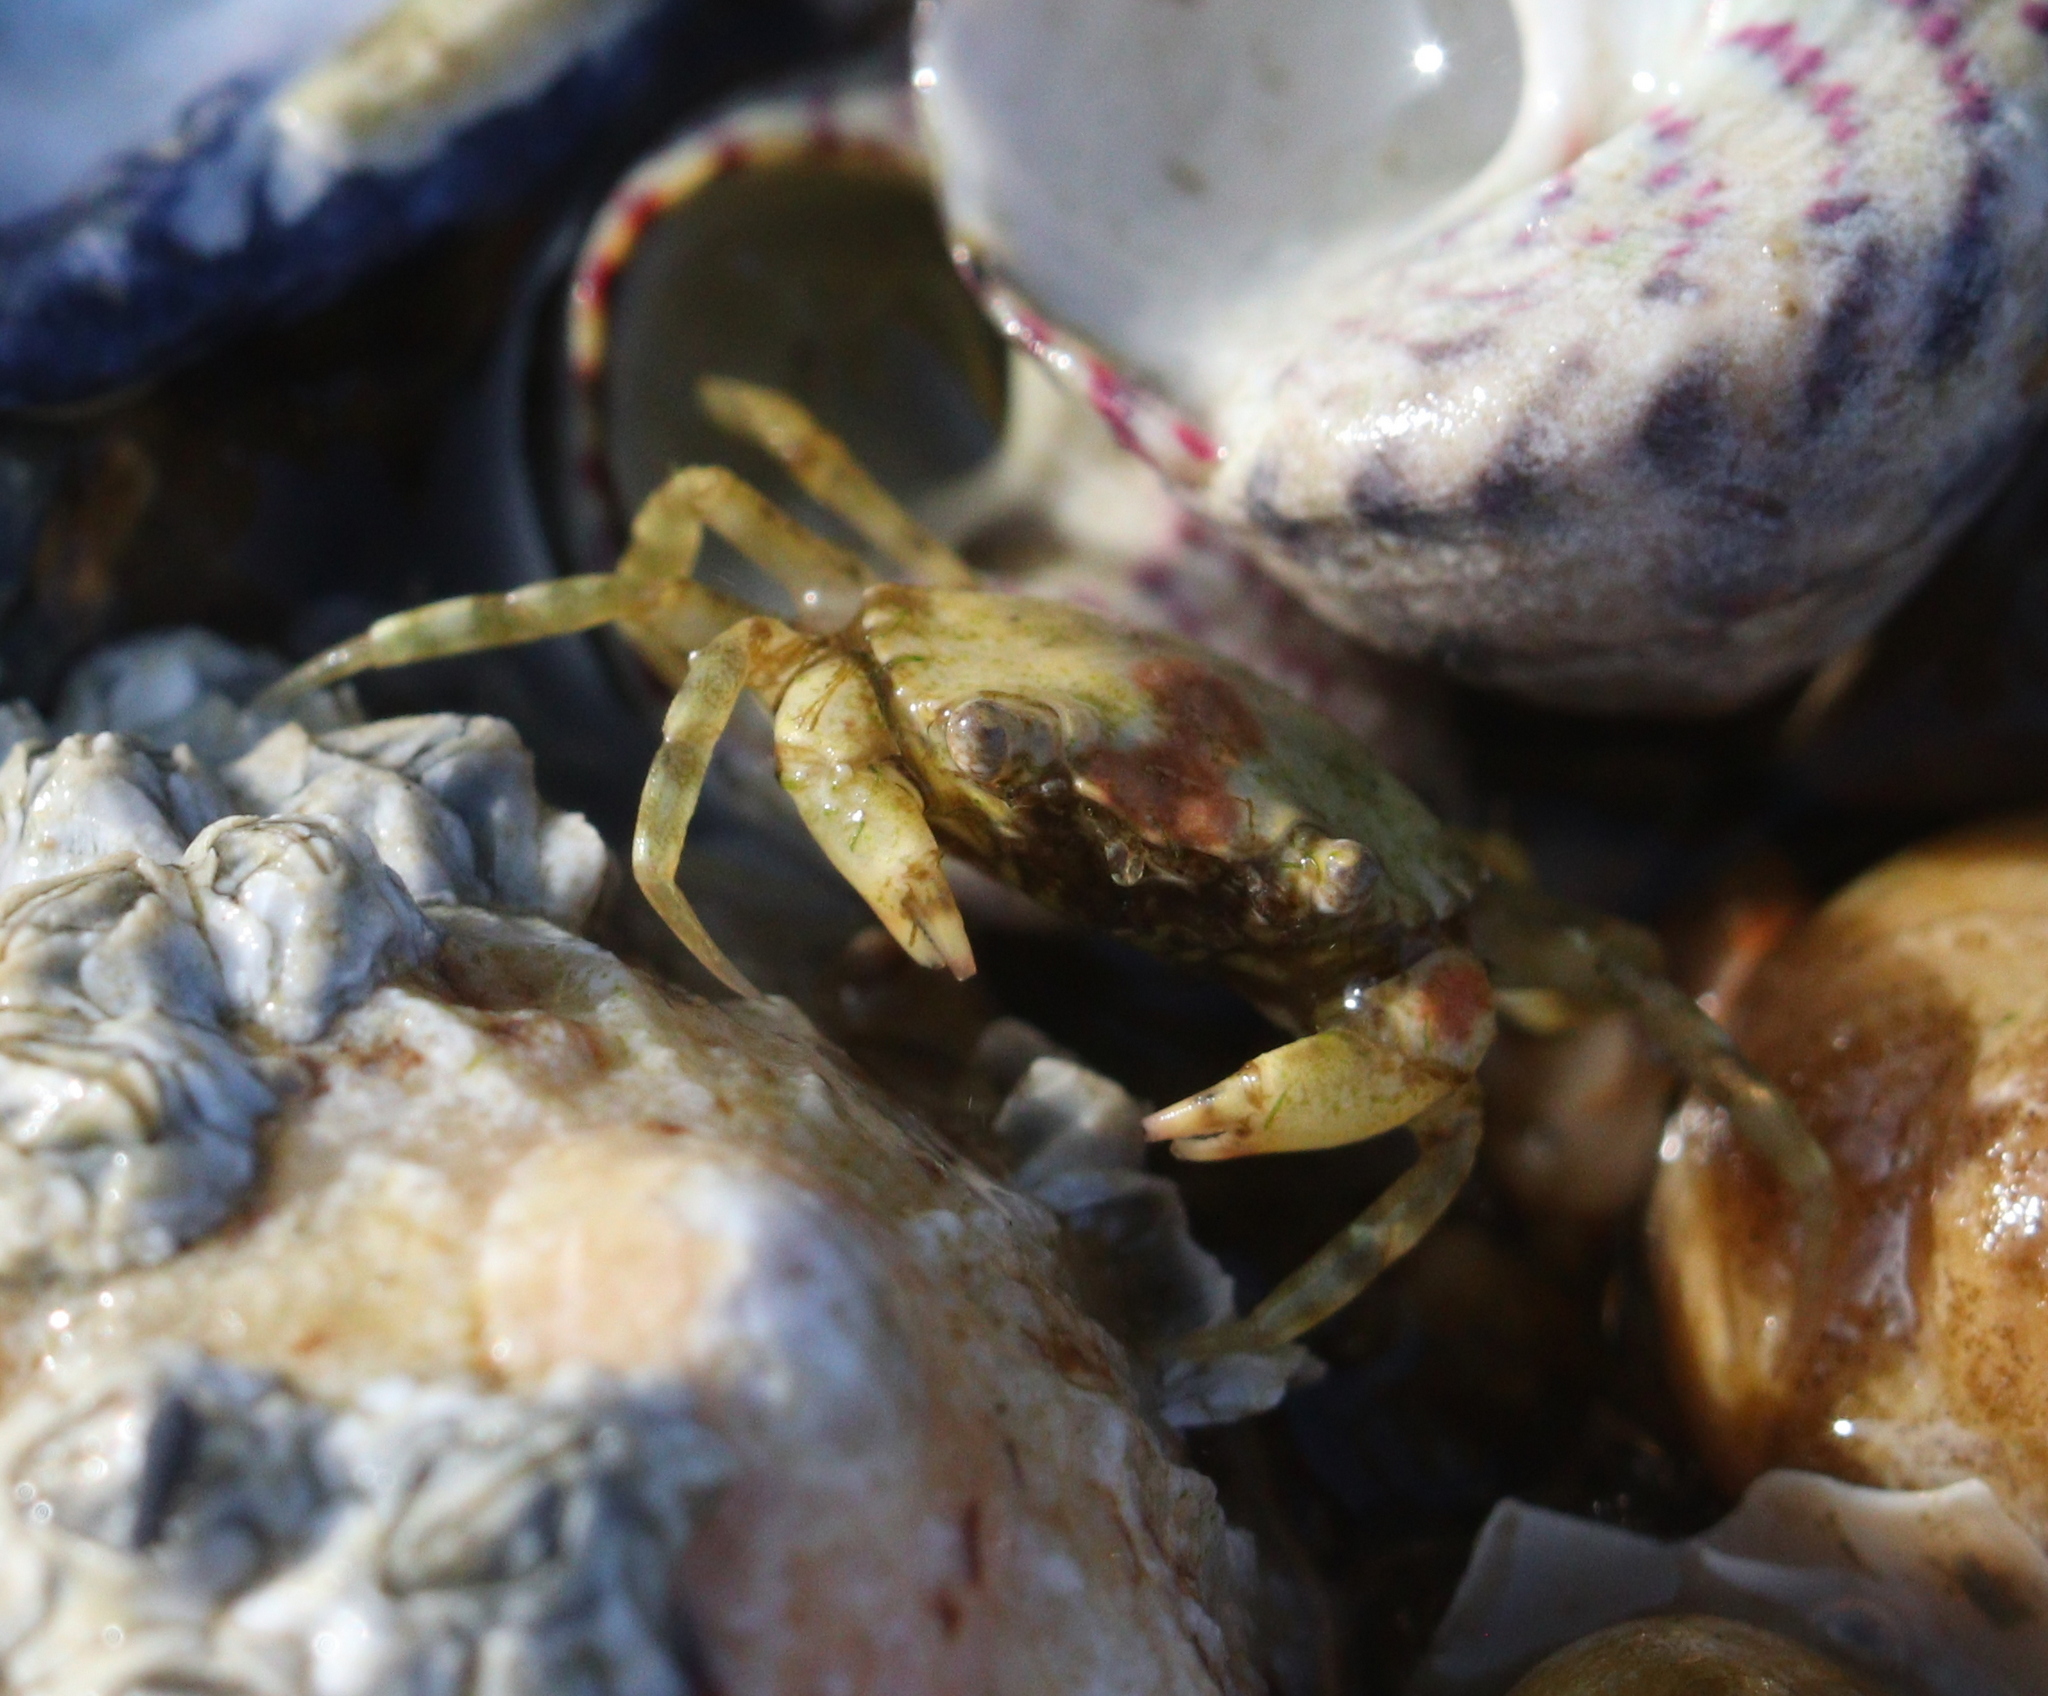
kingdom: Animalia
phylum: Arthropoda
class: Malacostraca
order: Decapoda
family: Carcinidae
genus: Carcinus
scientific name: Carcinus maenas
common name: European green crab
